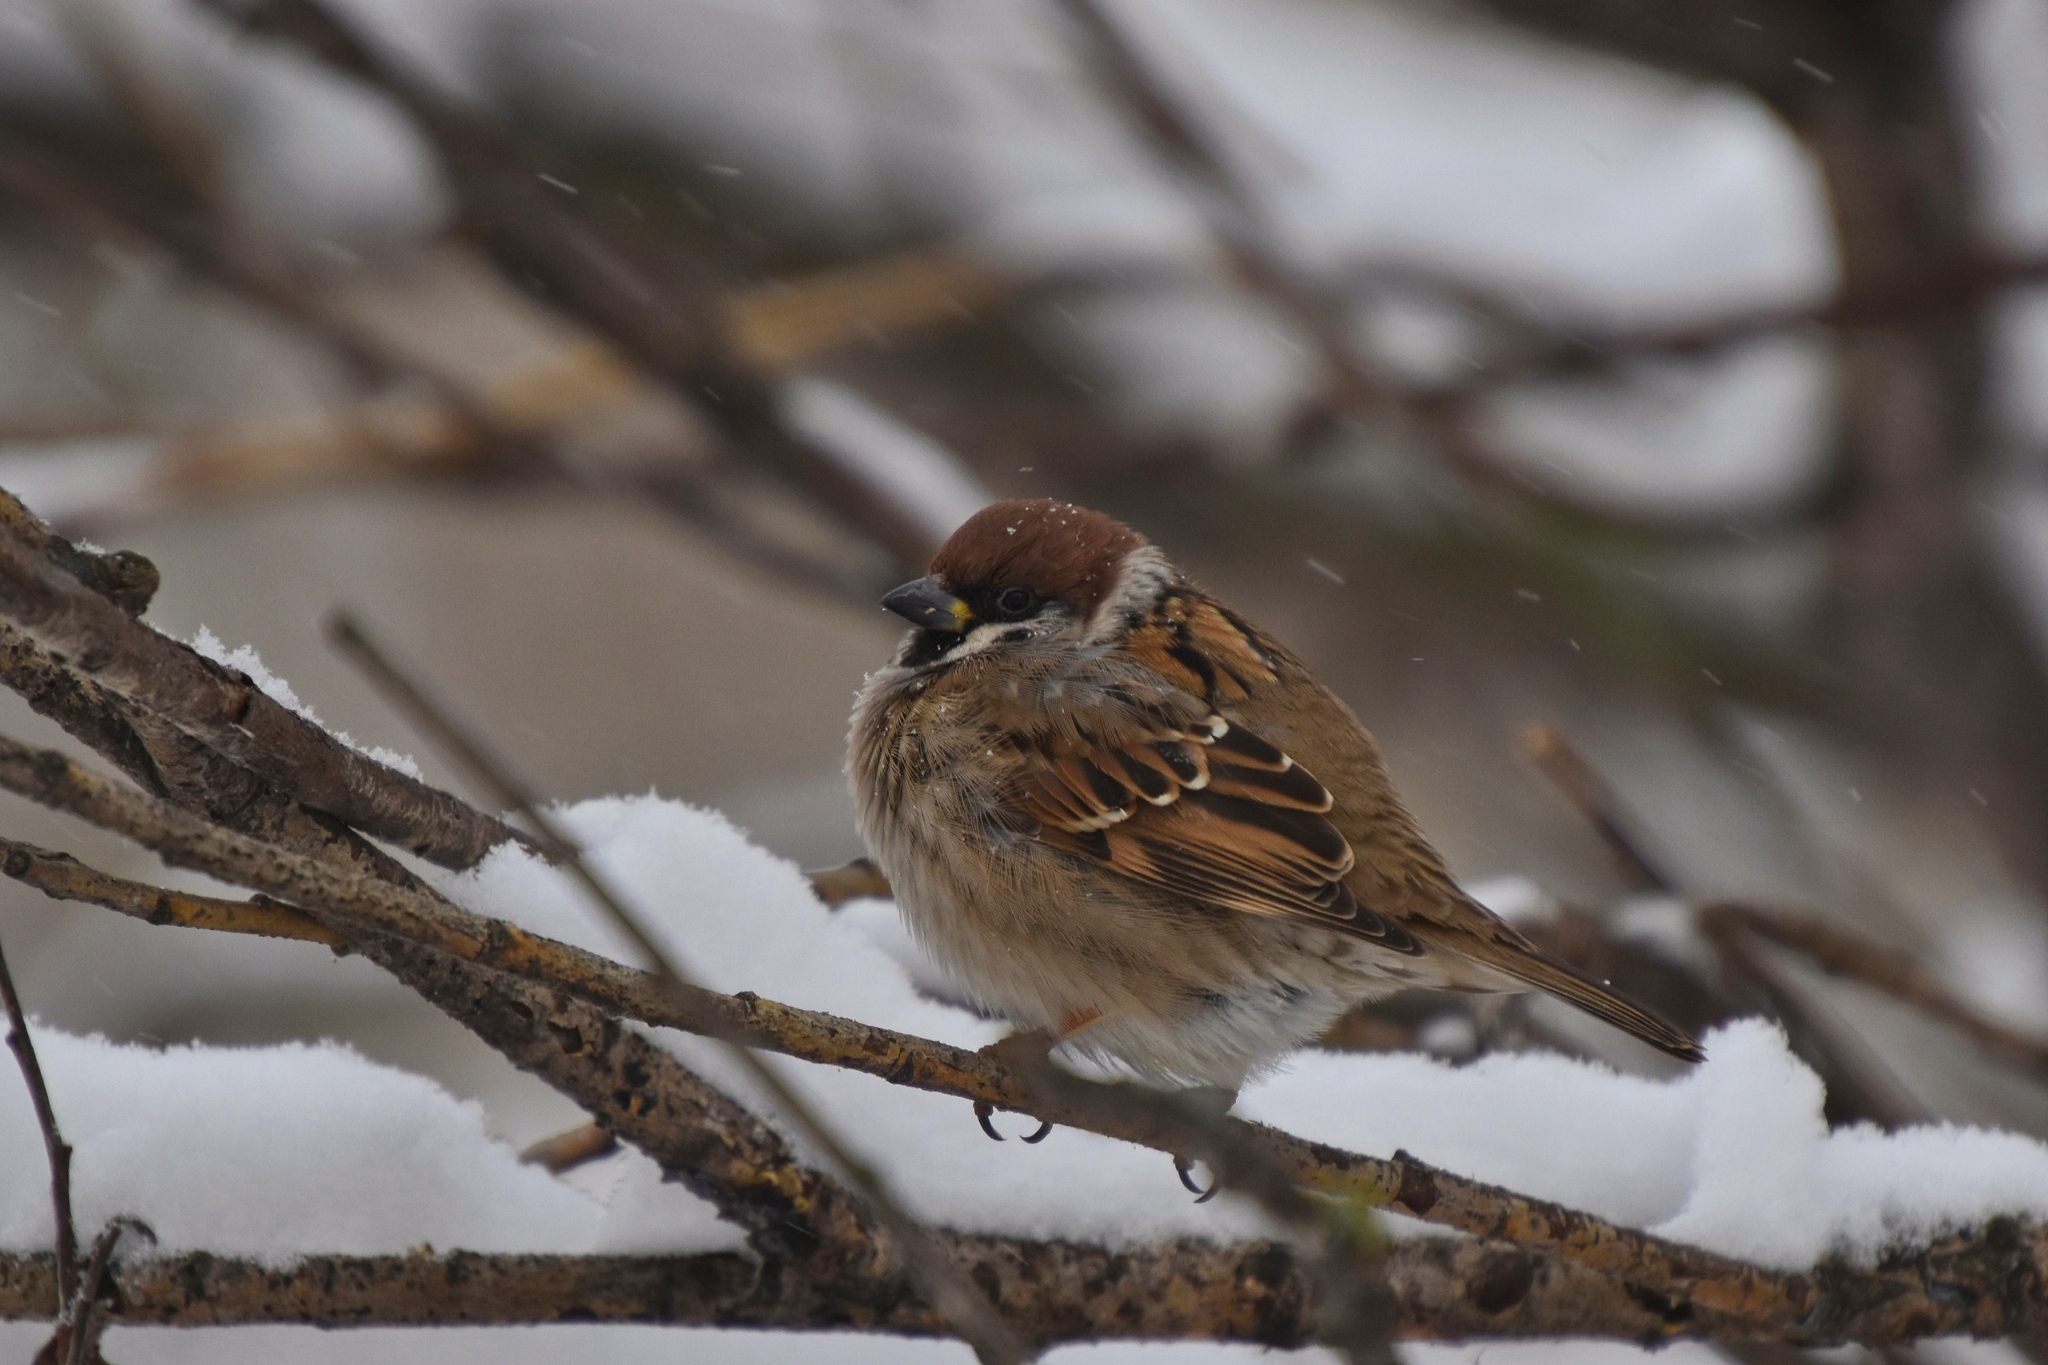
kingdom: Animalia
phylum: Chordata
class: Aves
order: Passeriformes
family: Passeridae
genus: Passer
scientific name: Passer montanus
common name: Eurasian tree sparrow
